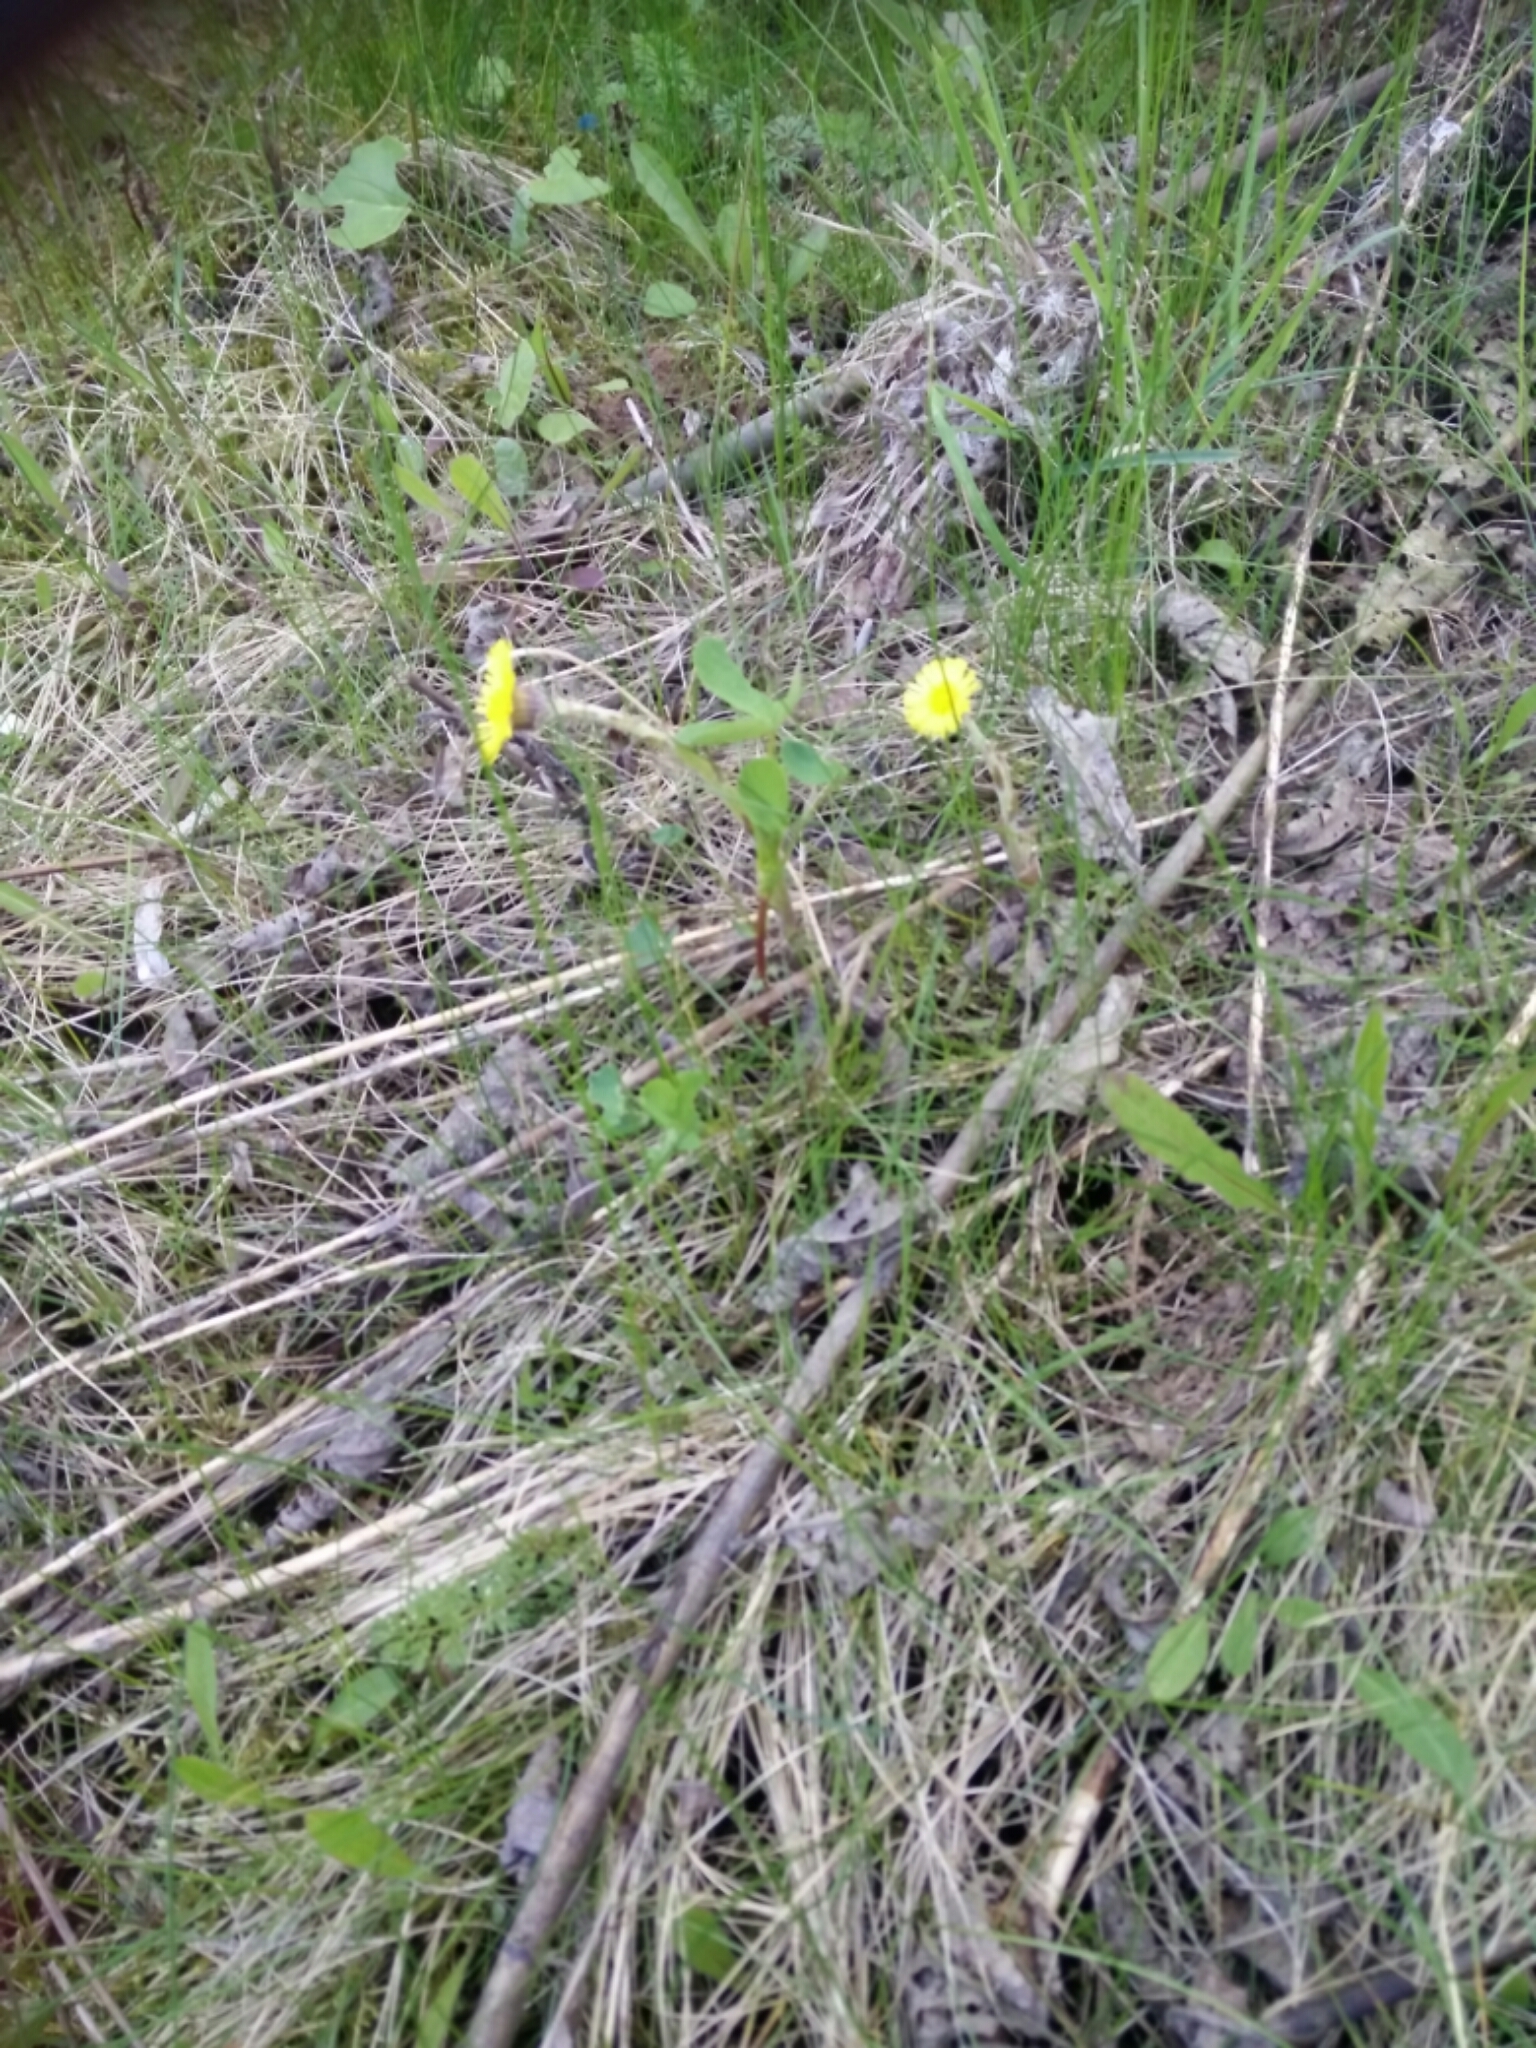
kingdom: Plantae
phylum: Tracheophyta
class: Magnoliopsida
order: Asterales
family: Asteraceae
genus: Tussilago
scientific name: Tussilago farfara
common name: Coltsfoot
